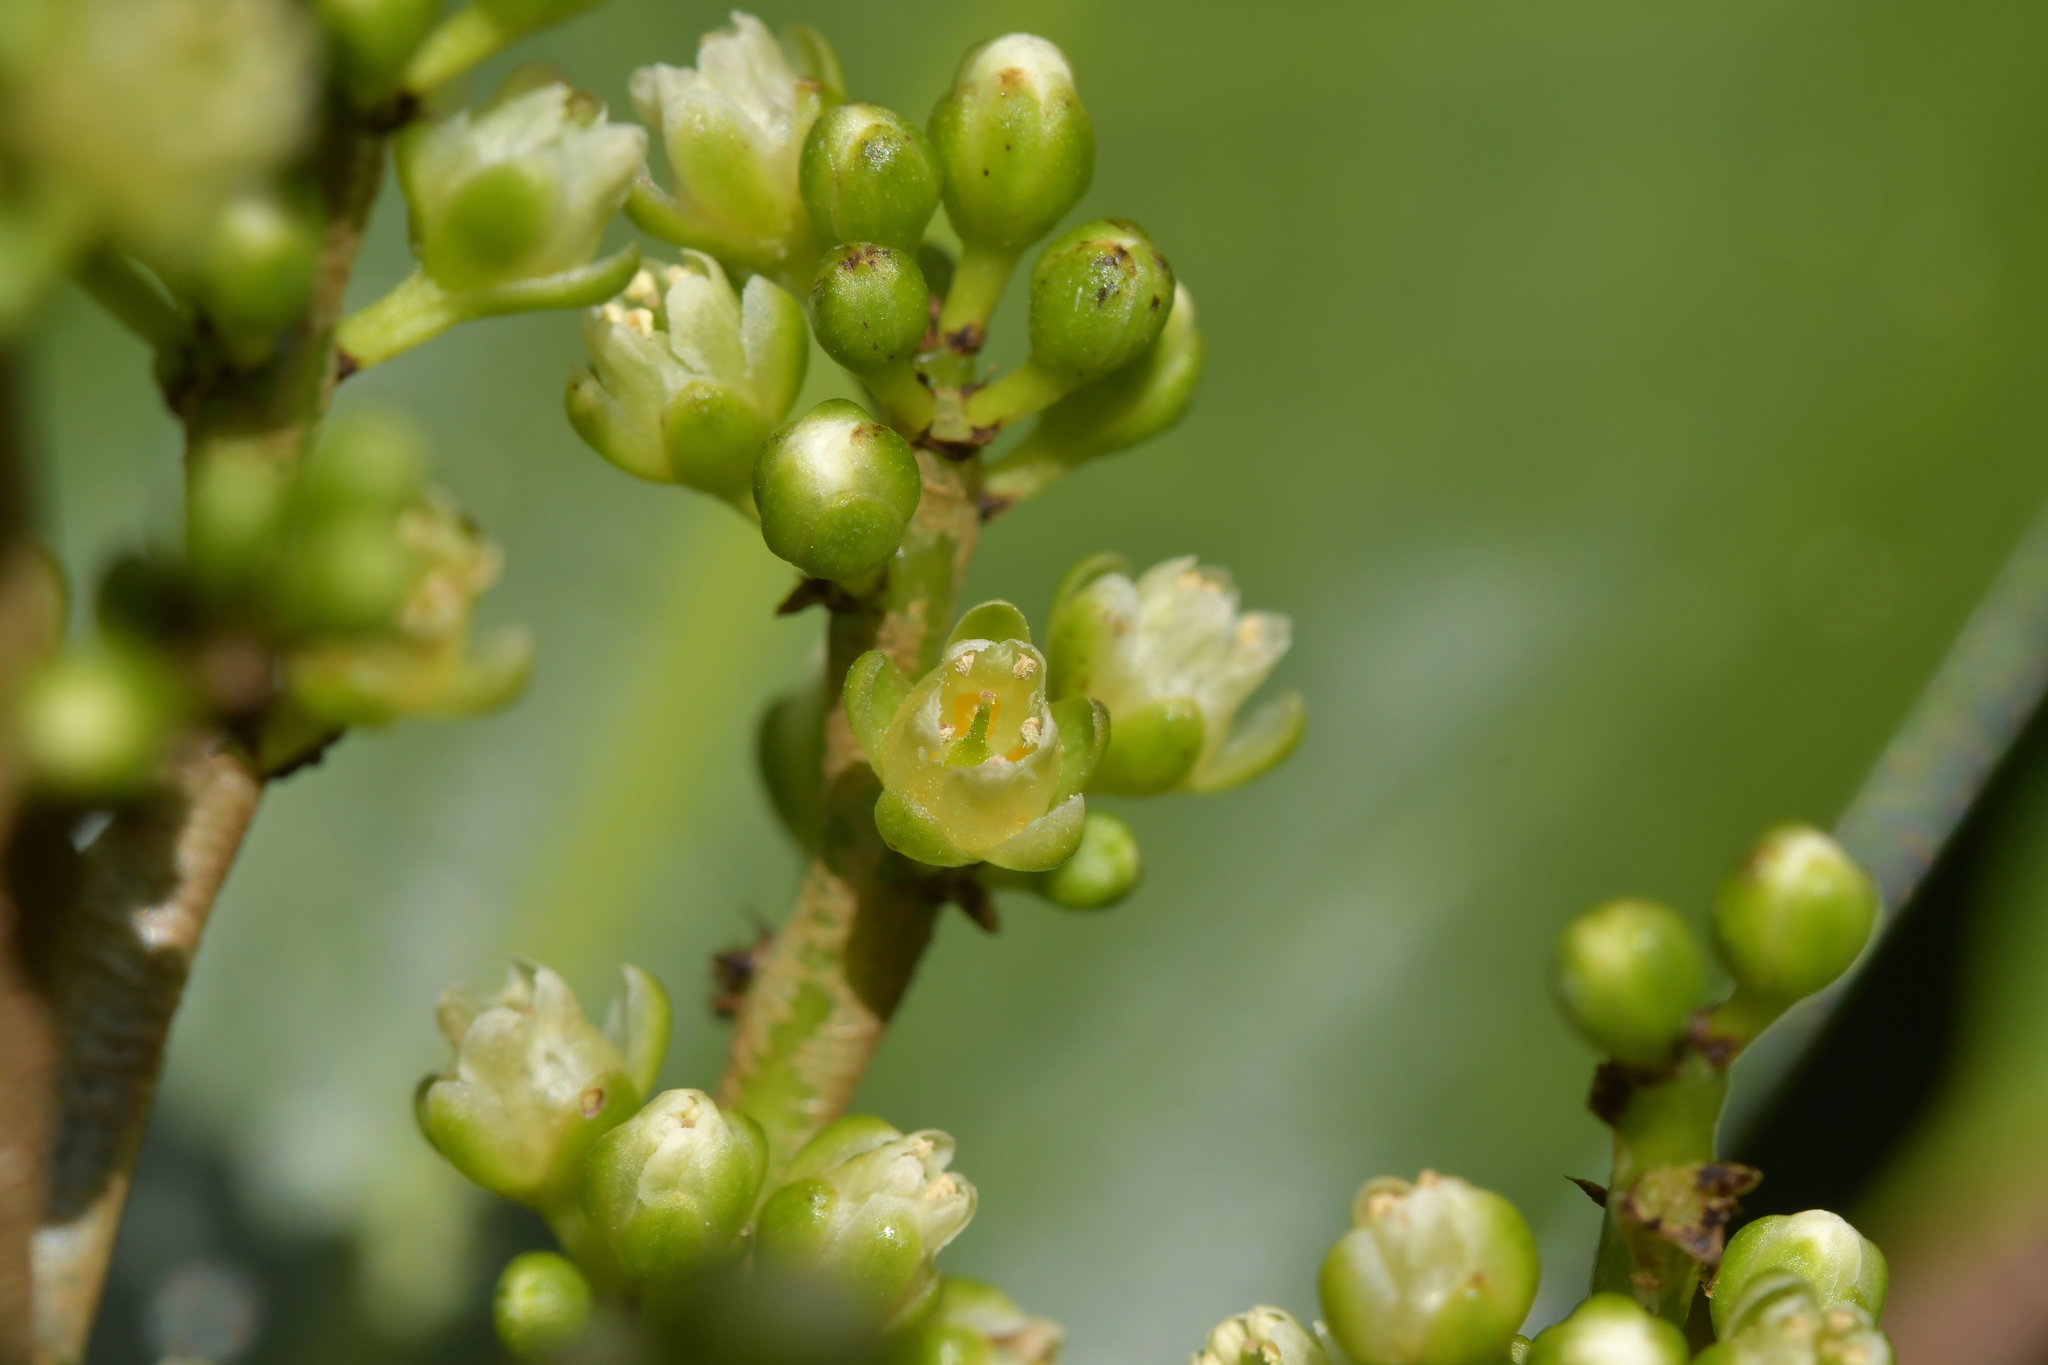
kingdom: Plantae
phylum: Tracheophyta
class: Magnoliopsida
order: Apiales
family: Araliaceae
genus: Pseudopanax
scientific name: Pseudopanax chathamicus
